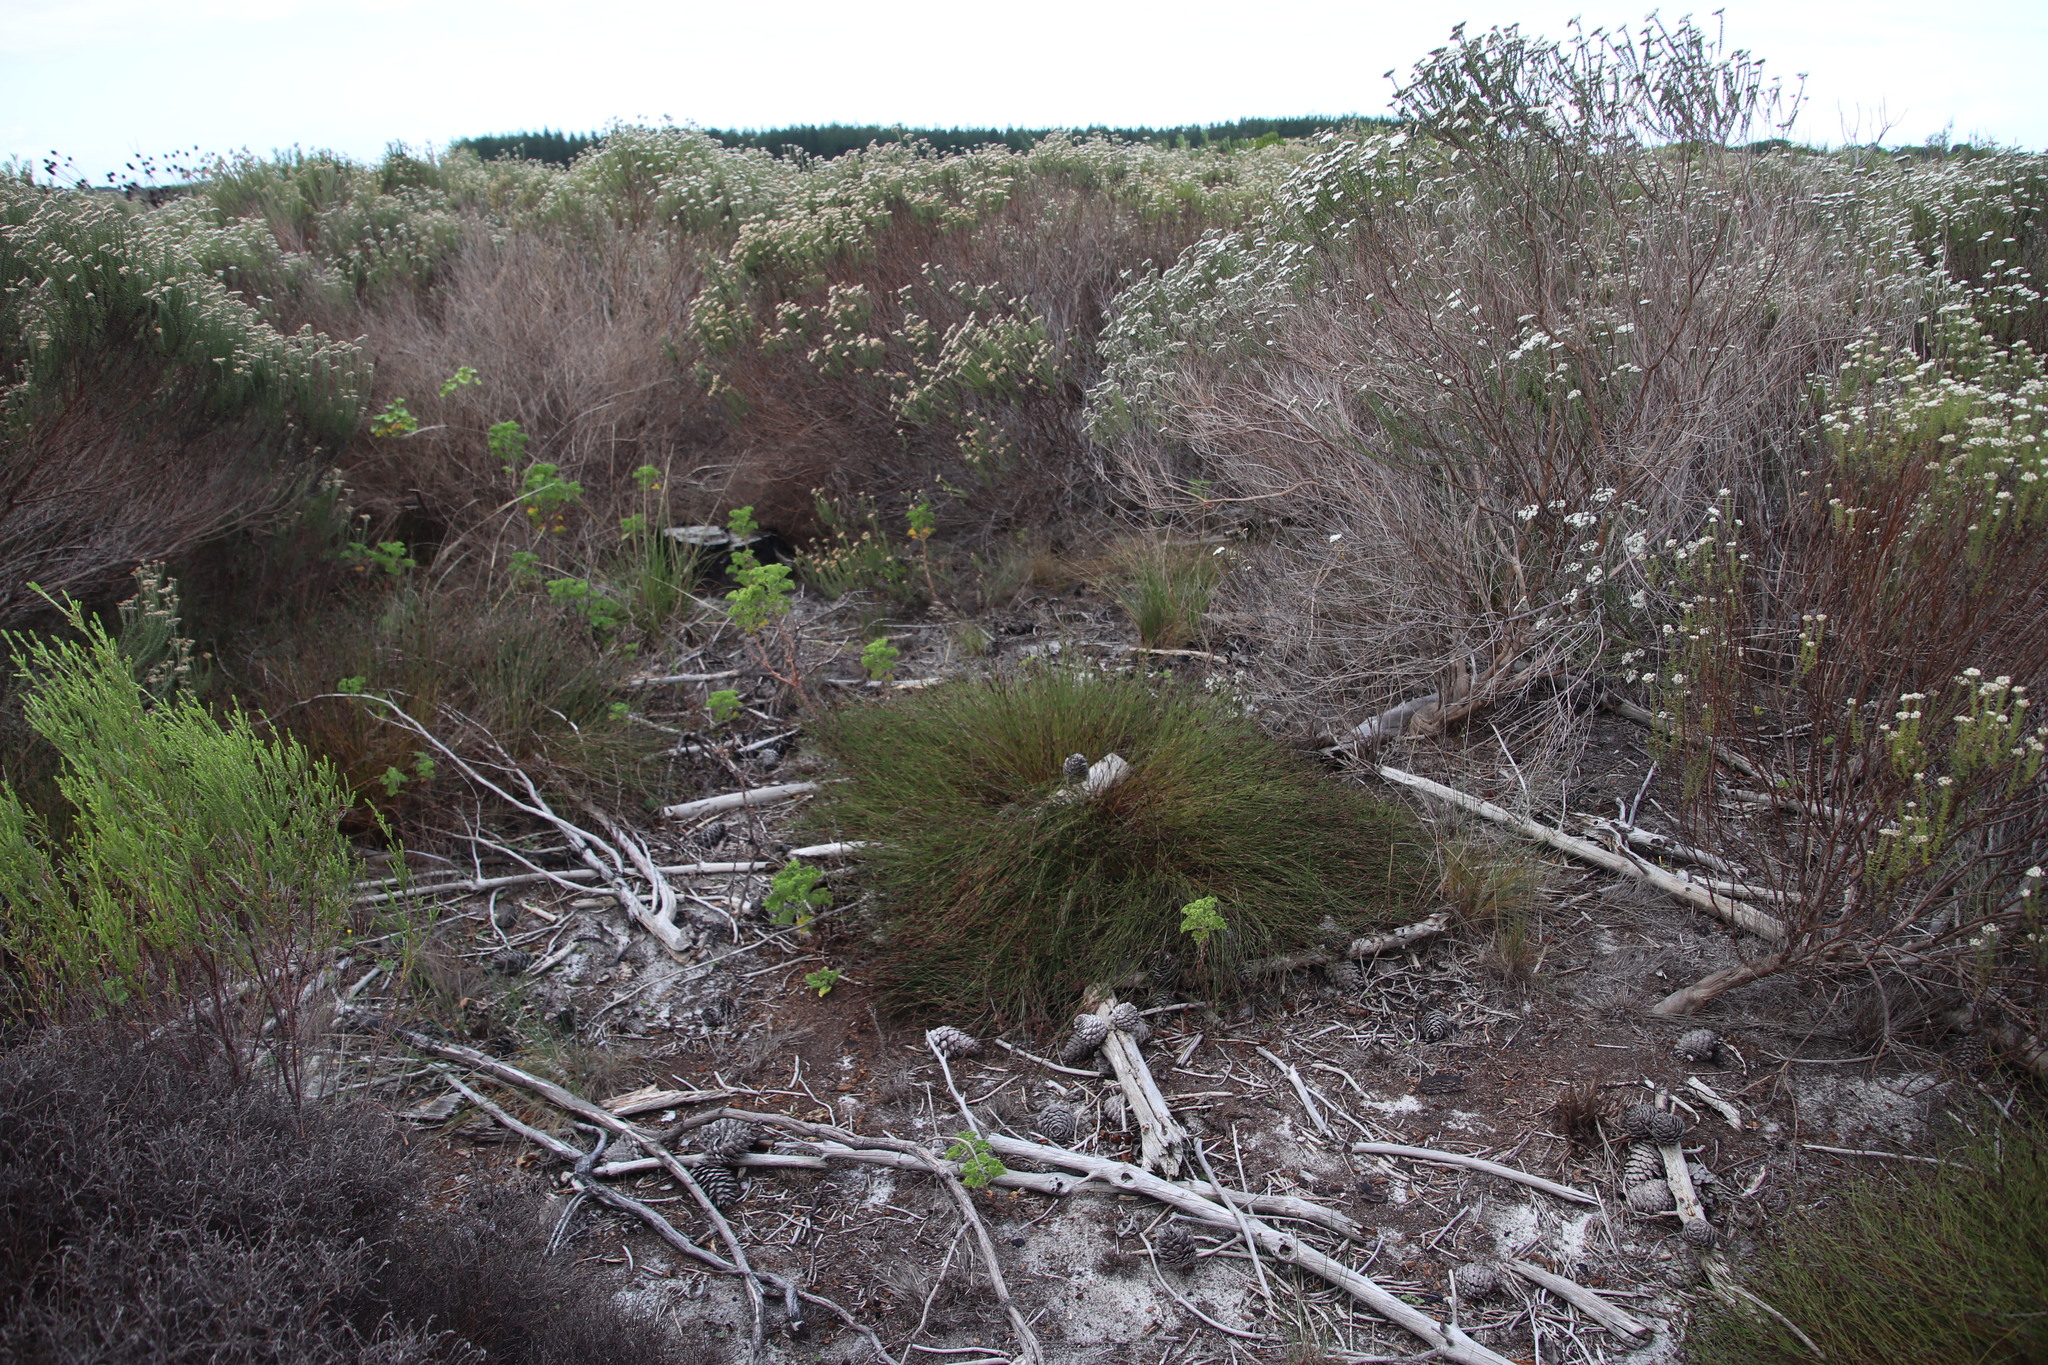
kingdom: Plantae
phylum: Tracheophyta
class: Liliopsida
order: Poales
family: Restionaceae
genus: Restio
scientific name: Restio capensis
